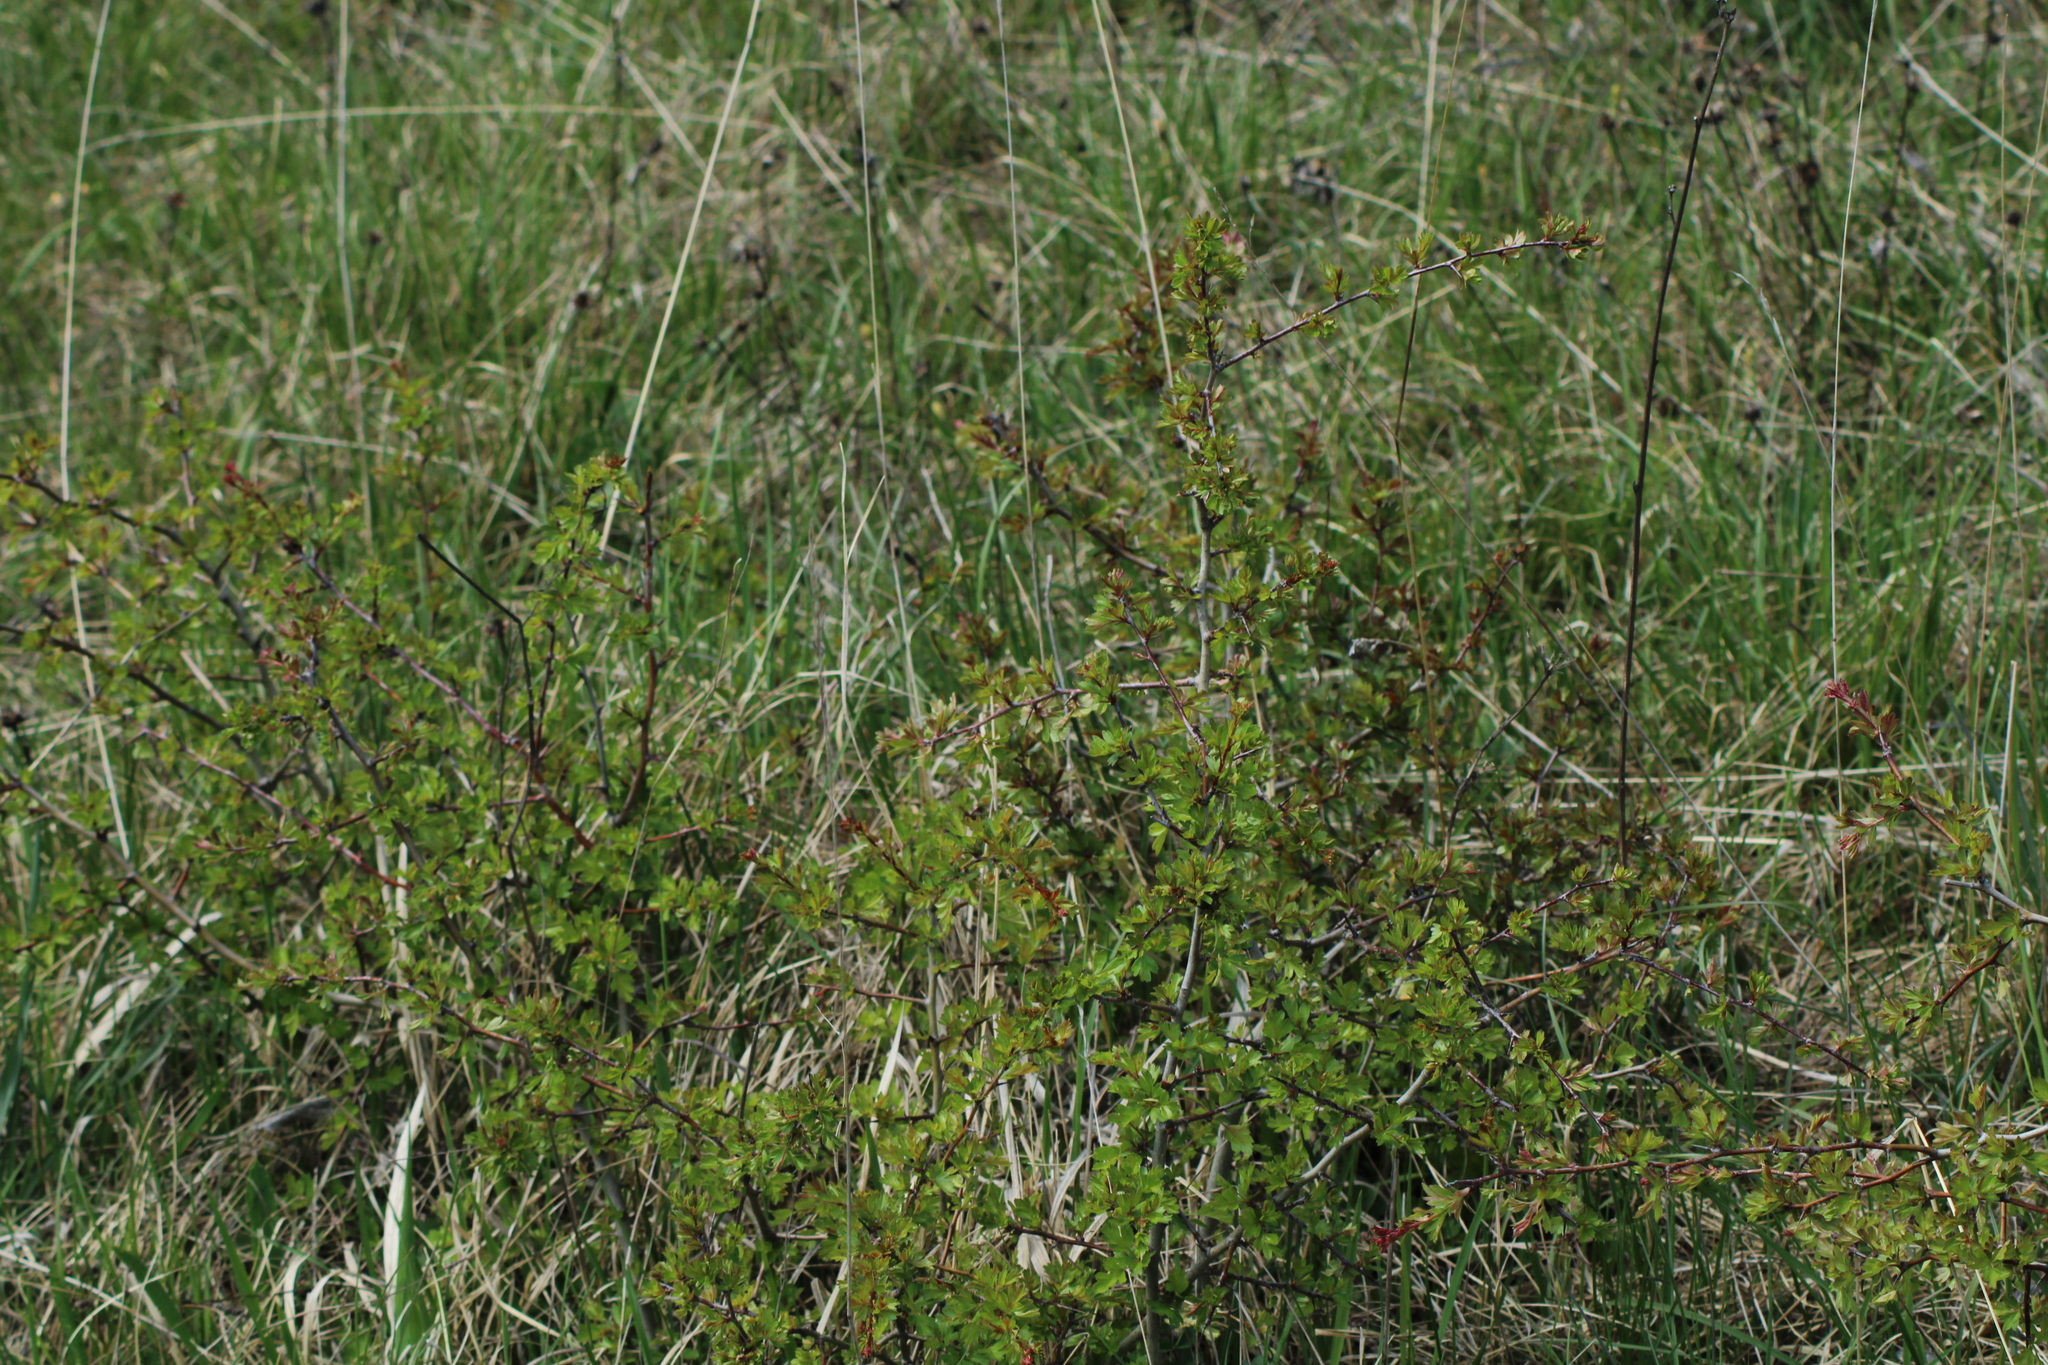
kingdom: Plantae
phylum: Tracheophyta
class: Magnoliopsida
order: Rosales
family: Rosaceae
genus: Crataegus
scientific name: Crataegus monogyna
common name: Hawthorn
